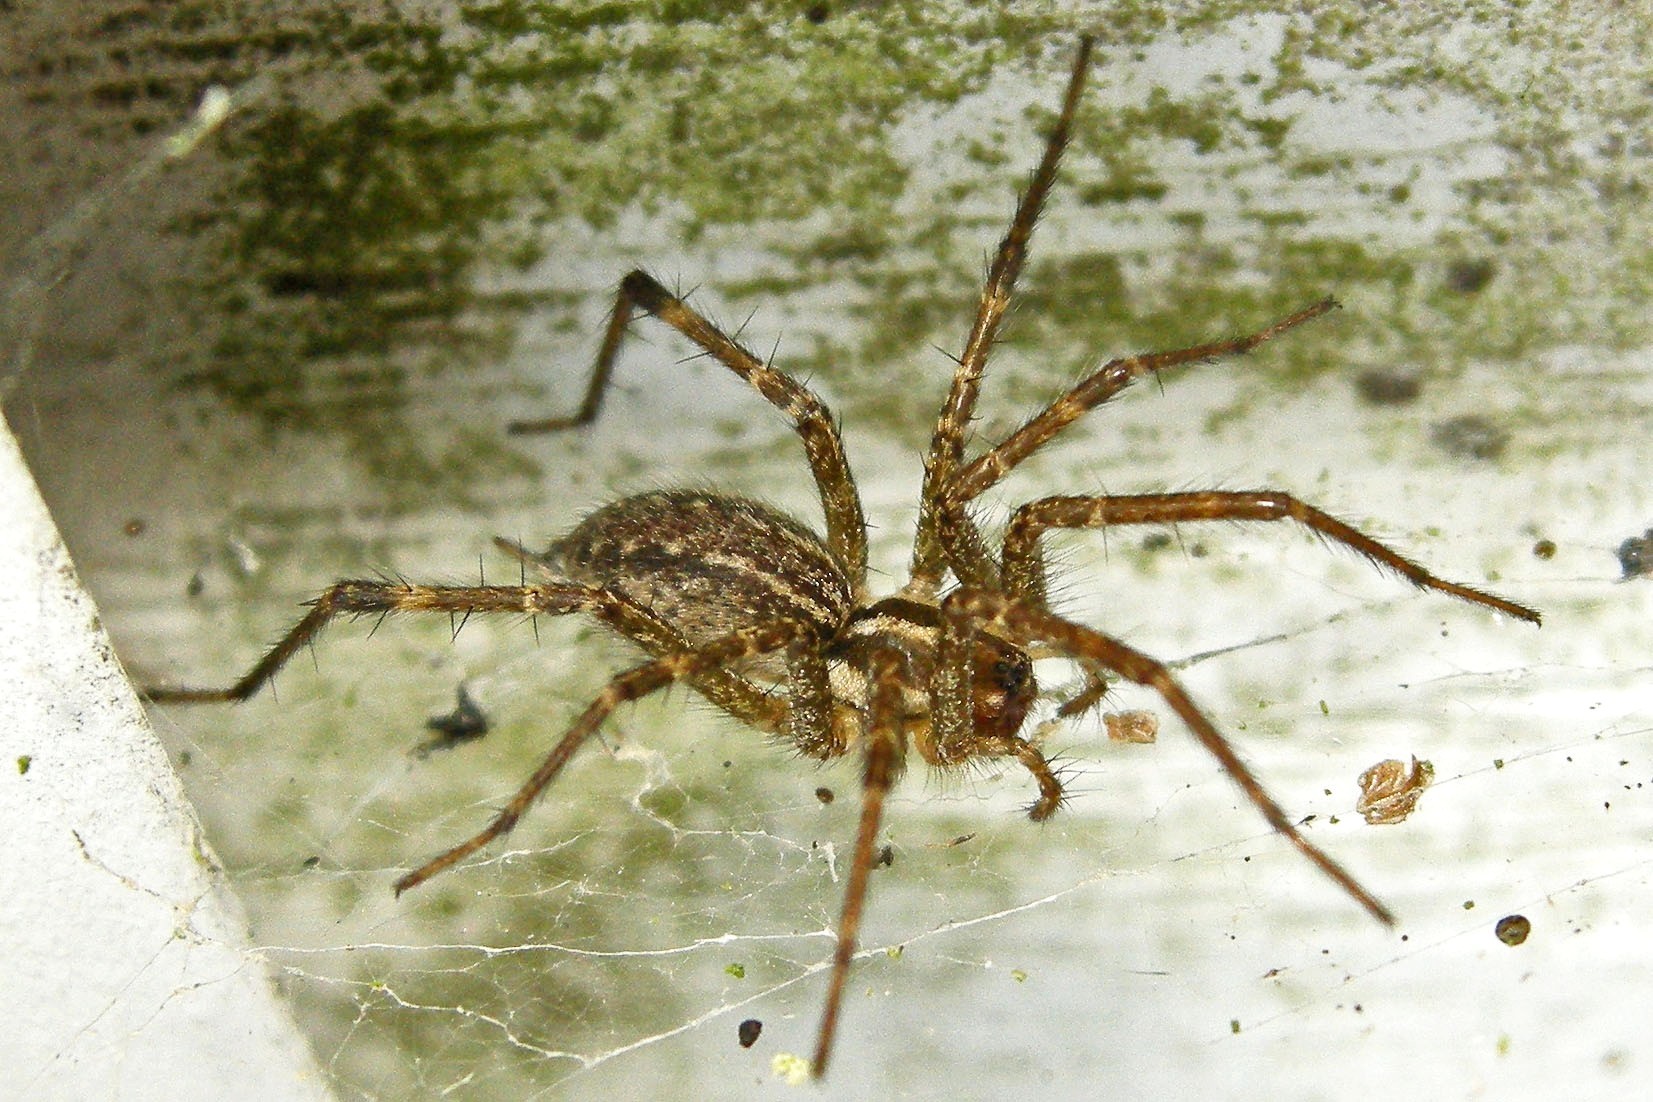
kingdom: Animalia
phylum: Arthropoda
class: Arachnida
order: Araneae
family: Agelenidae
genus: Agelenopsis
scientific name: Agelenopsis
